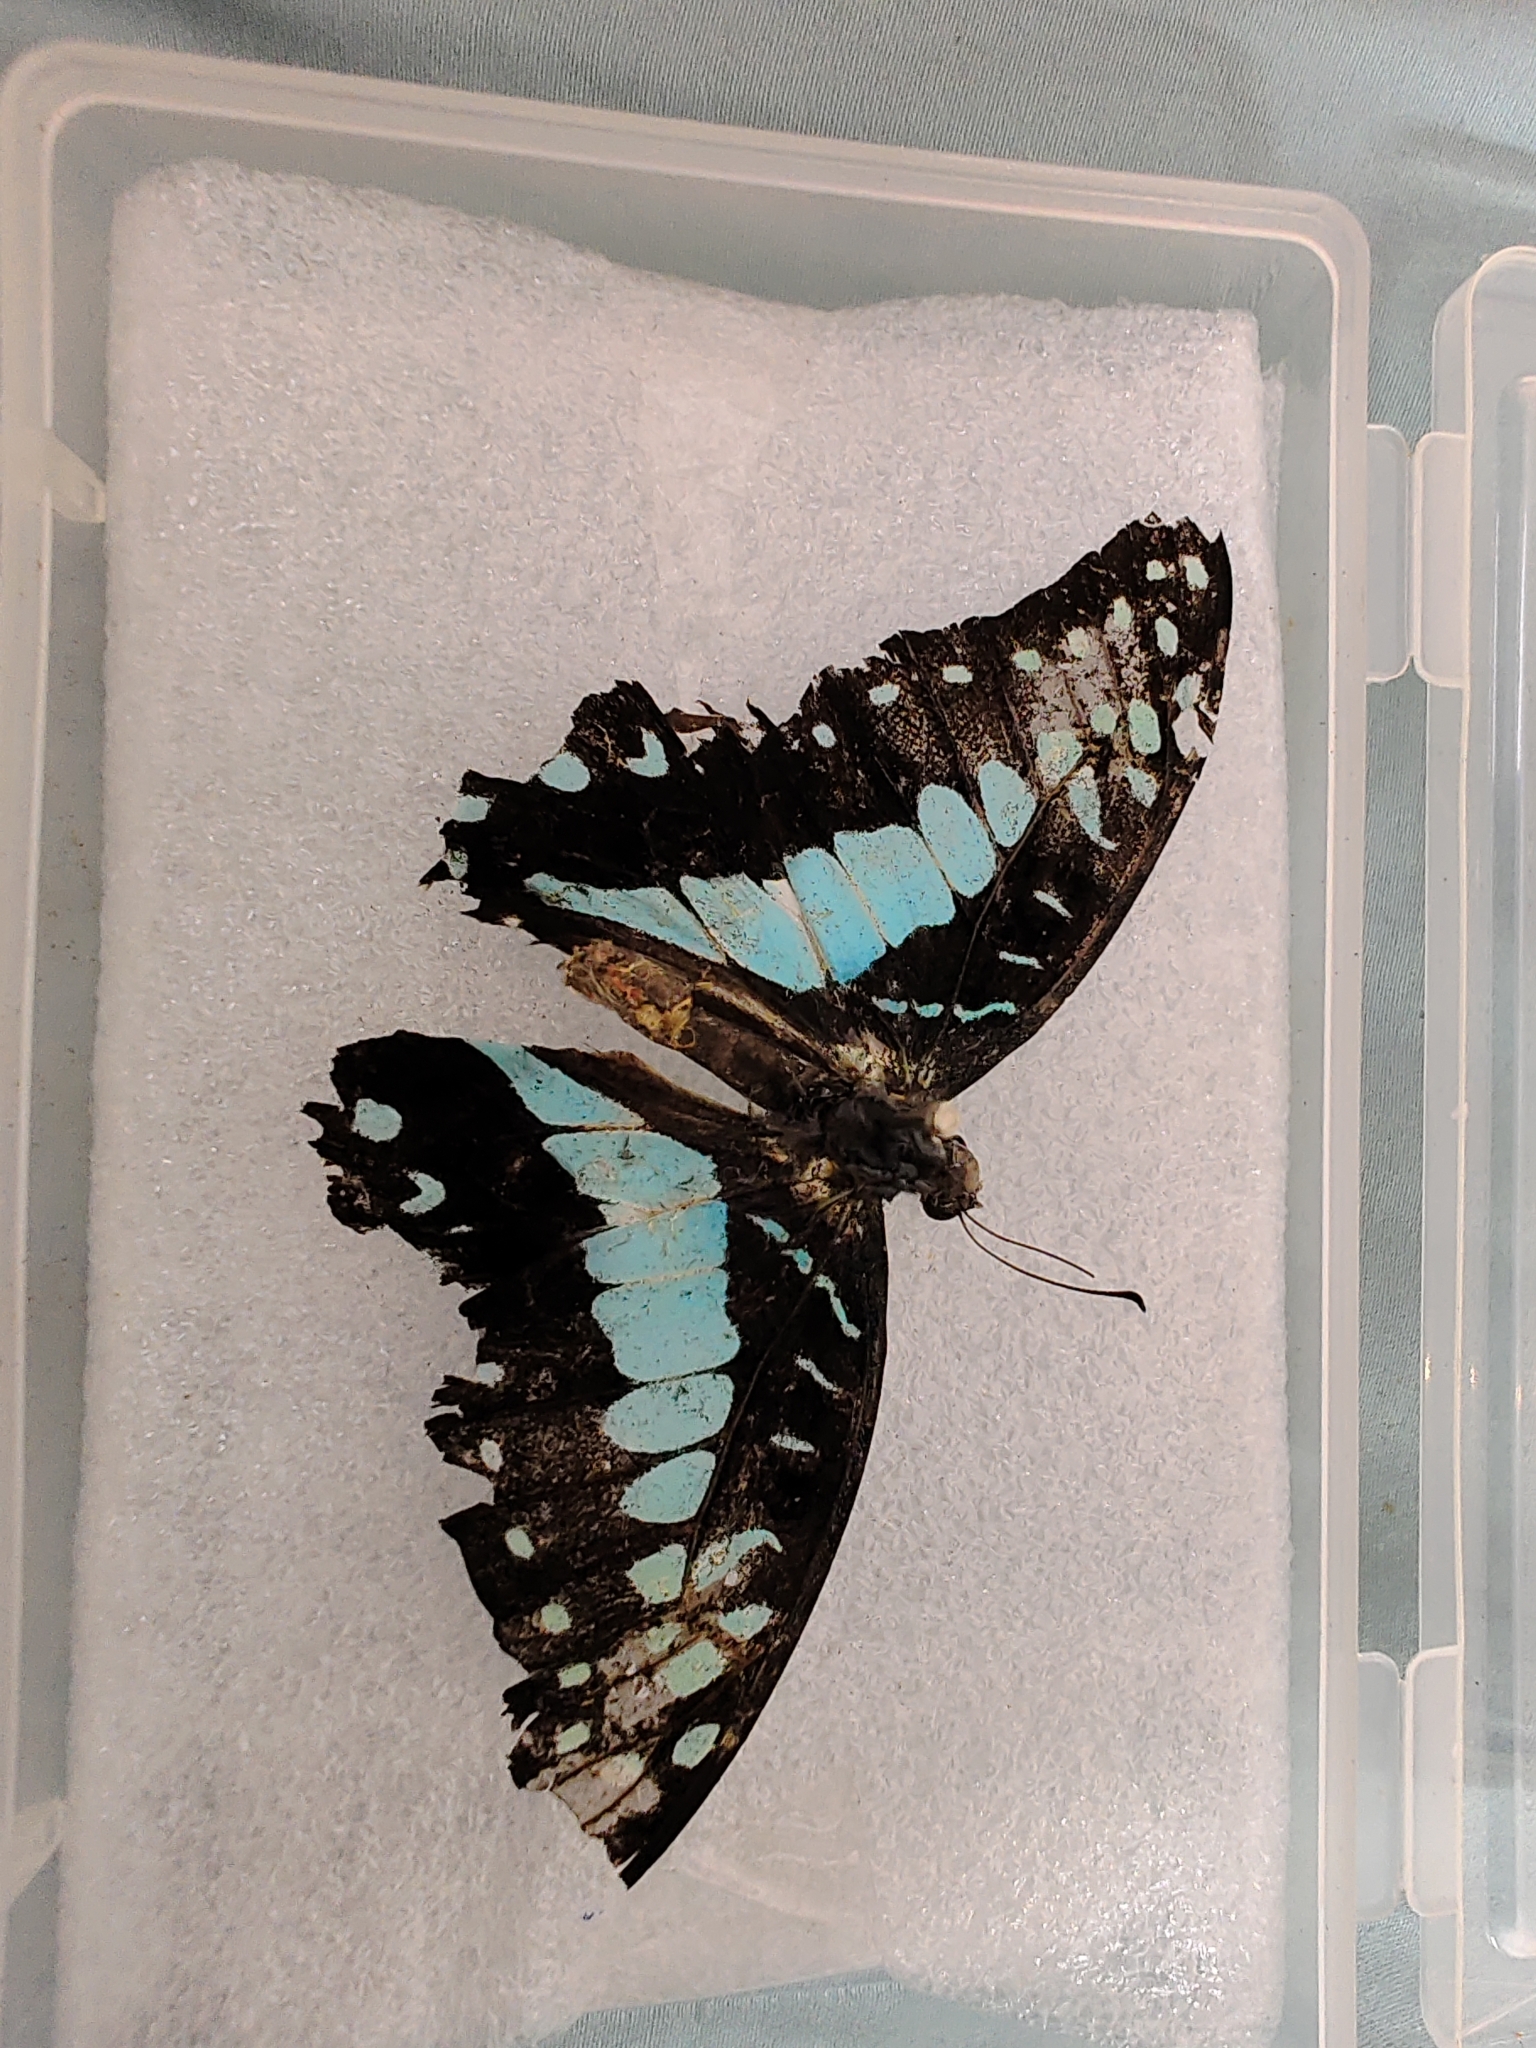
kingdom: Animalia
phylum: Arthropoda
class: Insecta
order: Lepidoptera
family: Papilionidae
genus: Graphium
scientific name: Graphium doson
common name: Common jay
